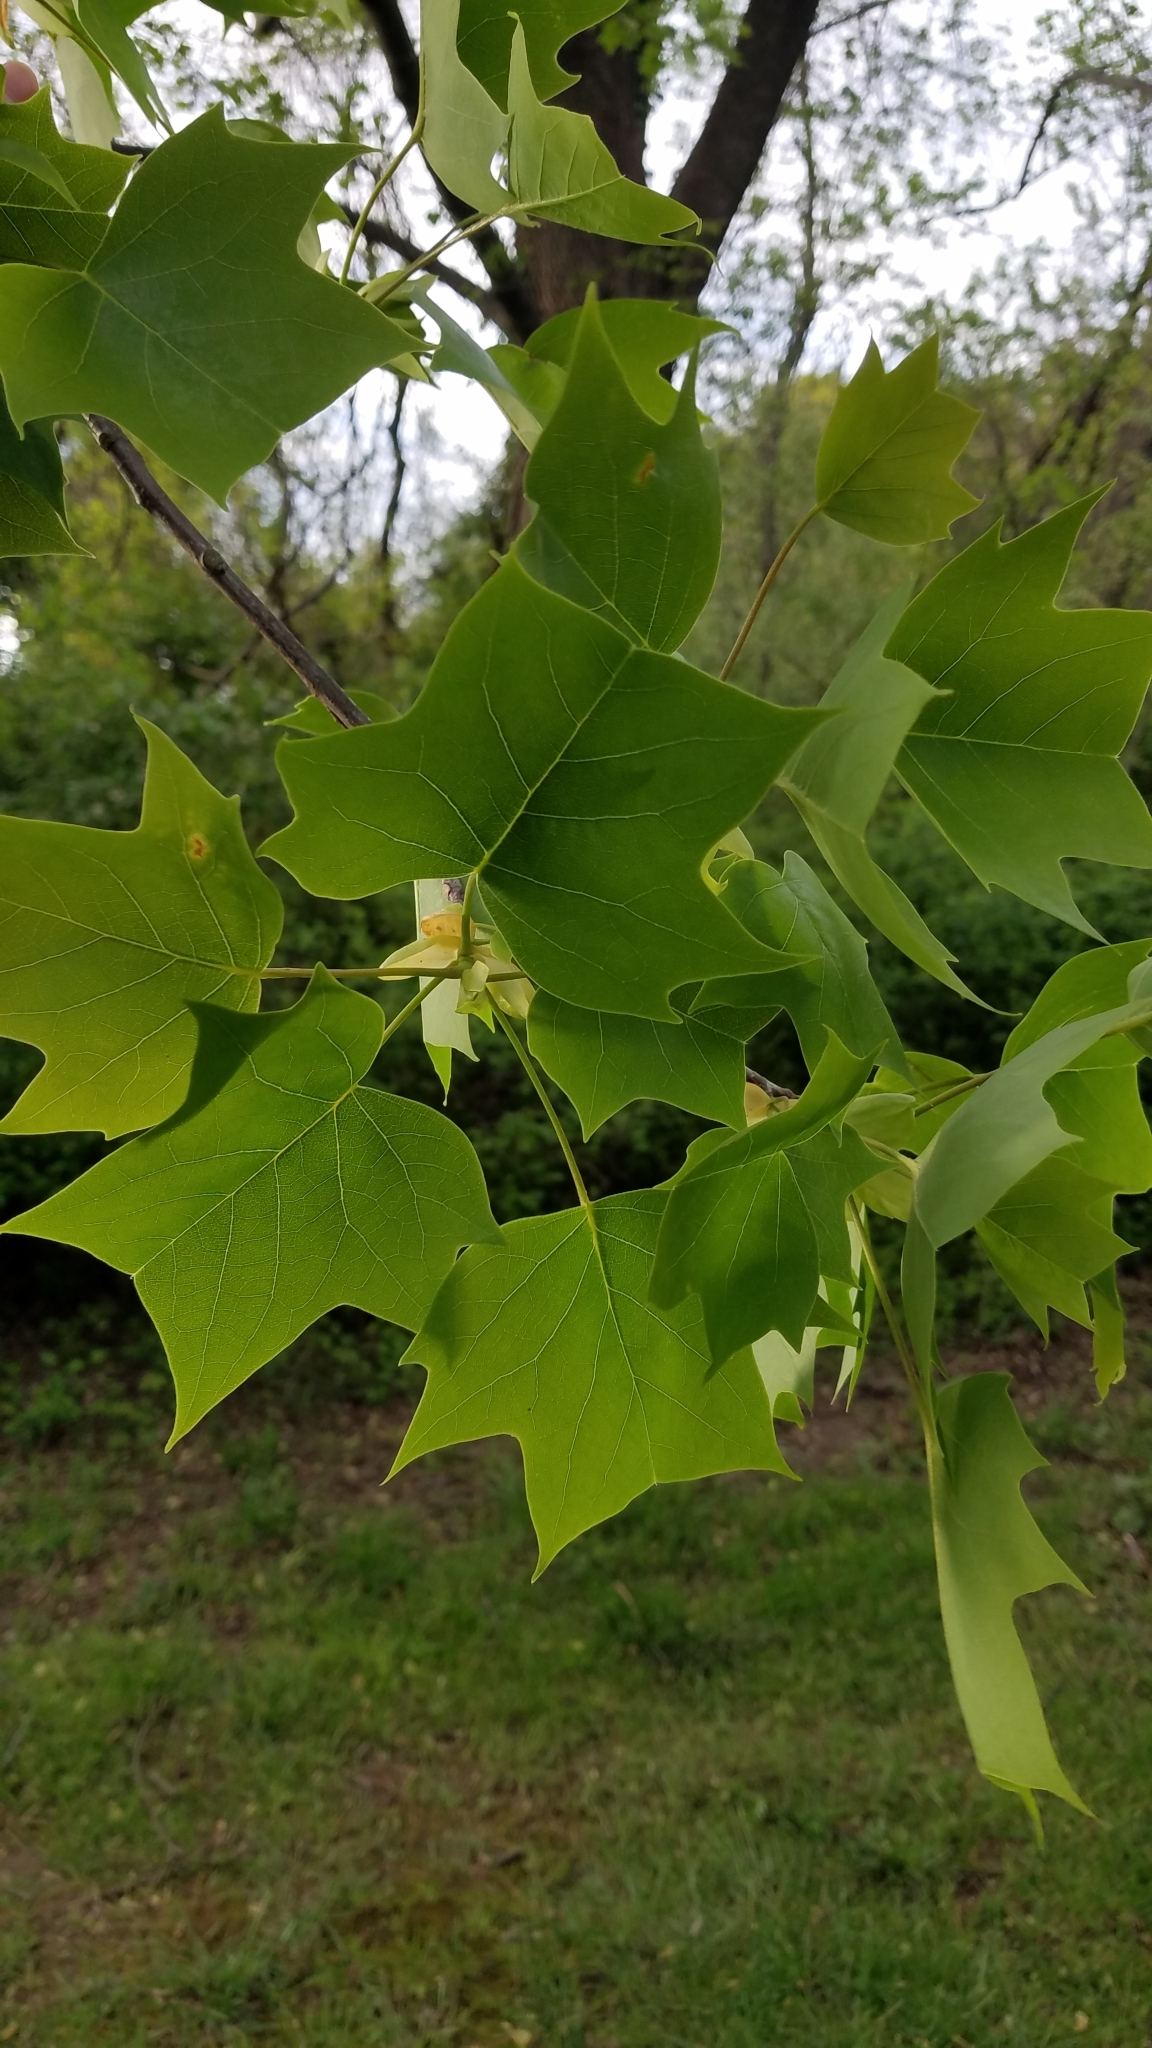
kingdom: Plantae
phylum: Tracheophyta
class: Magnoliopsida
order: Magnoliales
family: Magnoliaceae
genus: Liriodendron
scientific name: Liriodendron tulipifera
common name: Tulip tree
